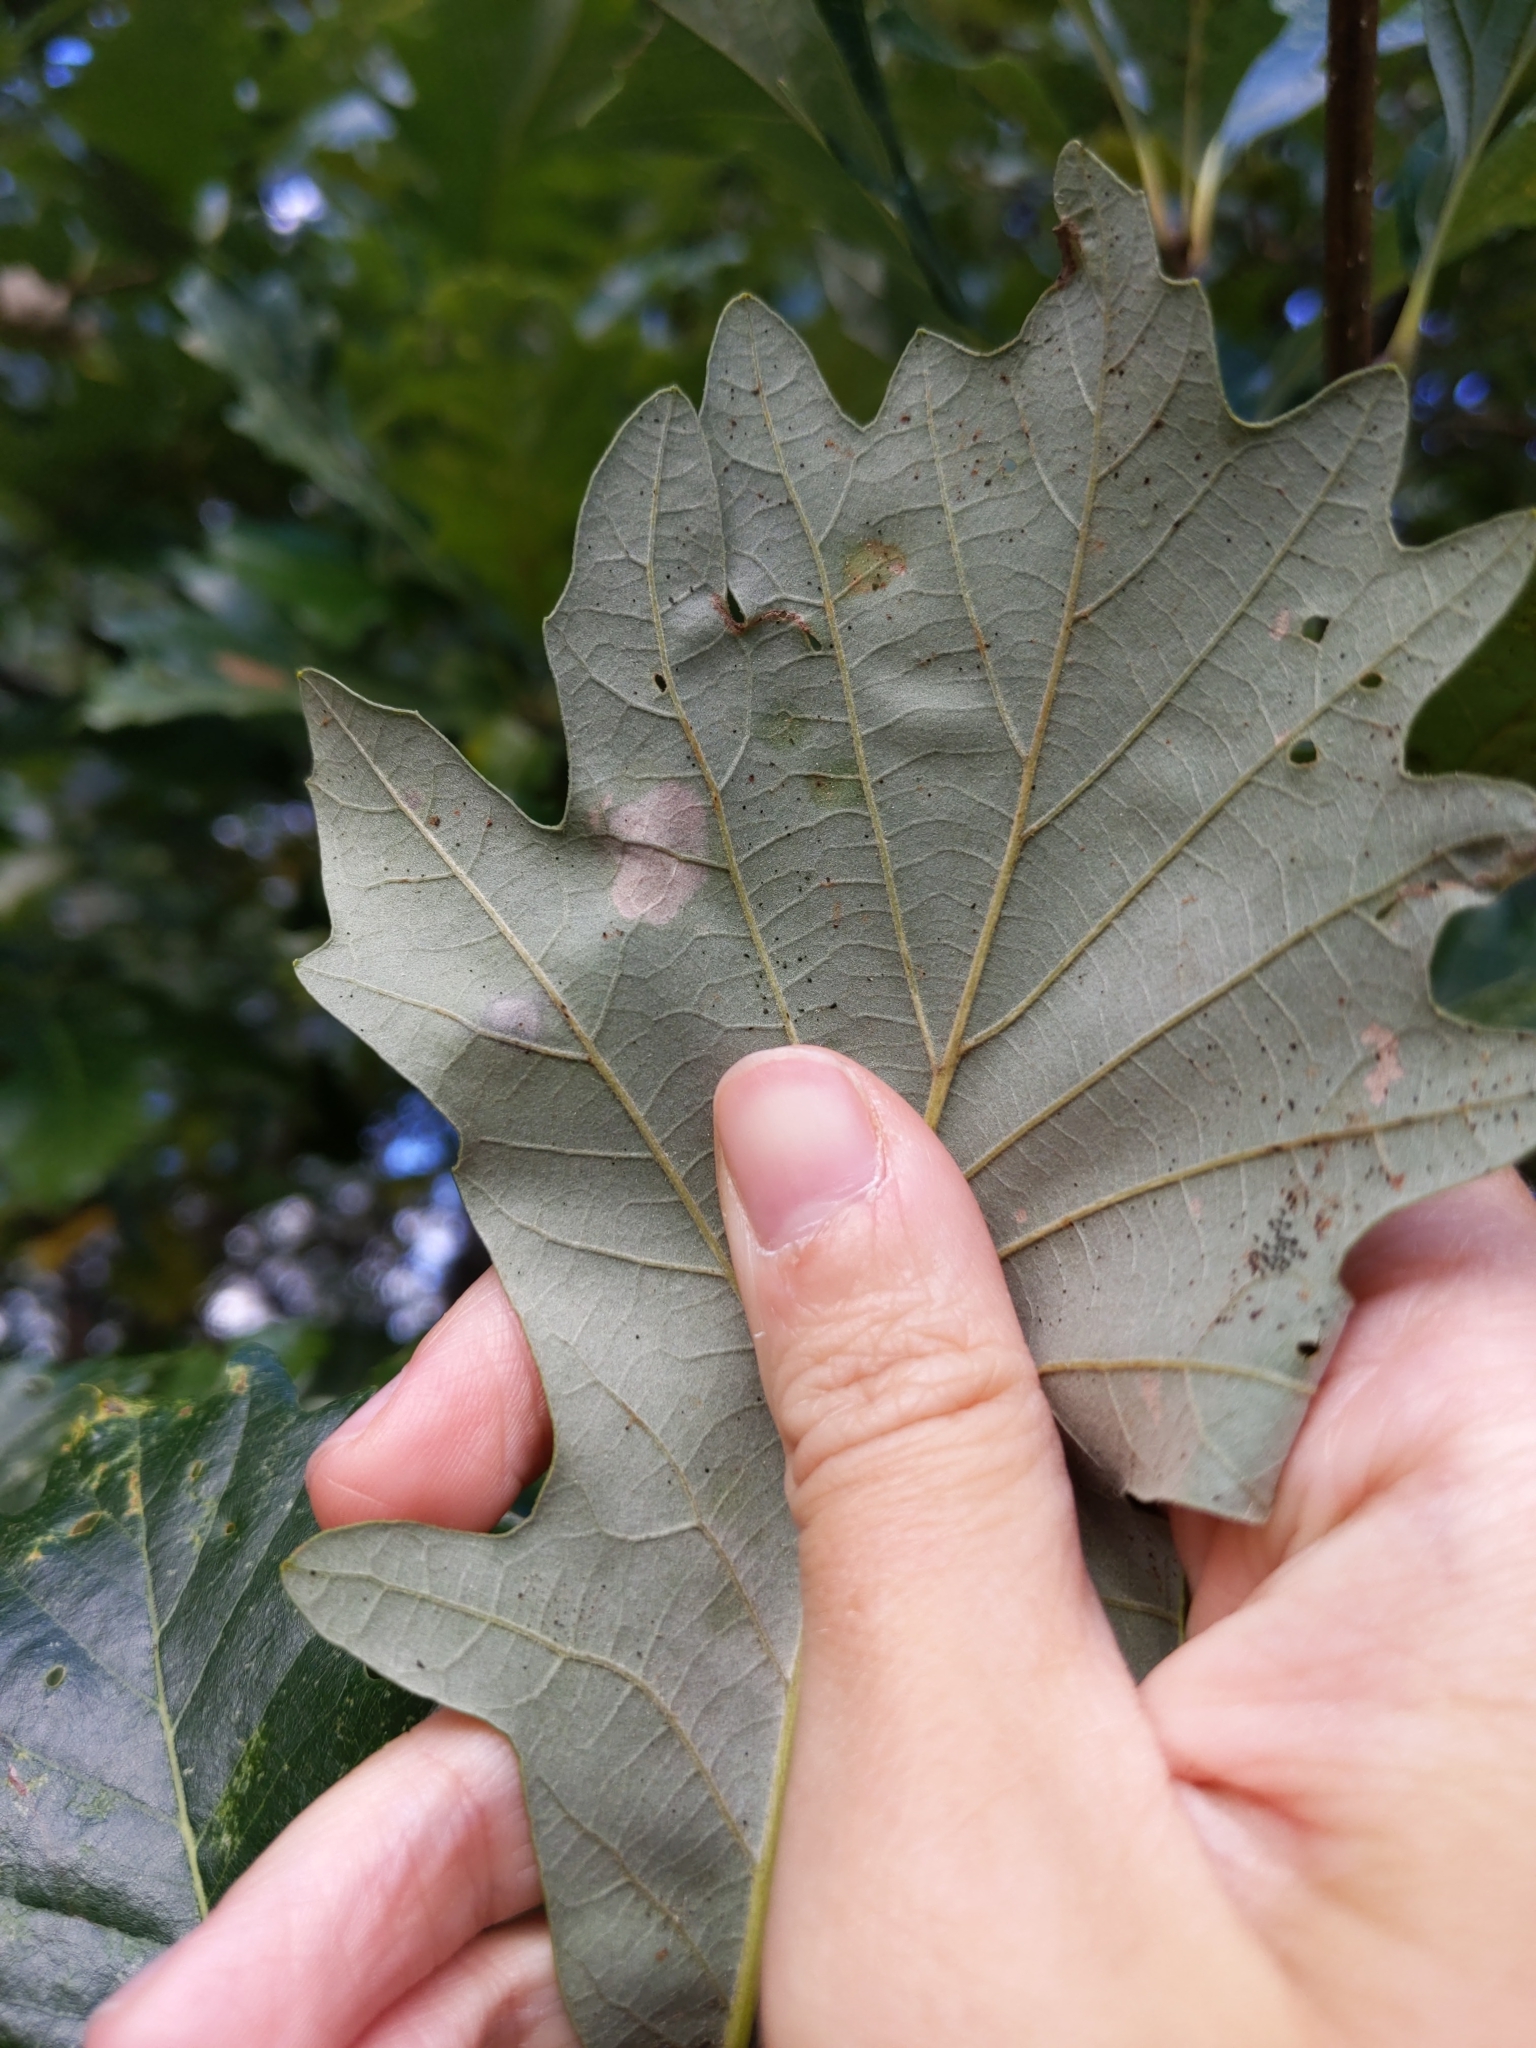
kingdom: Animalia
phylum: Arthropoda
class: Insecta
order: Lepidoptera
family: Gracillariidae
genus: Cameraria
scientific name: Cameraria
